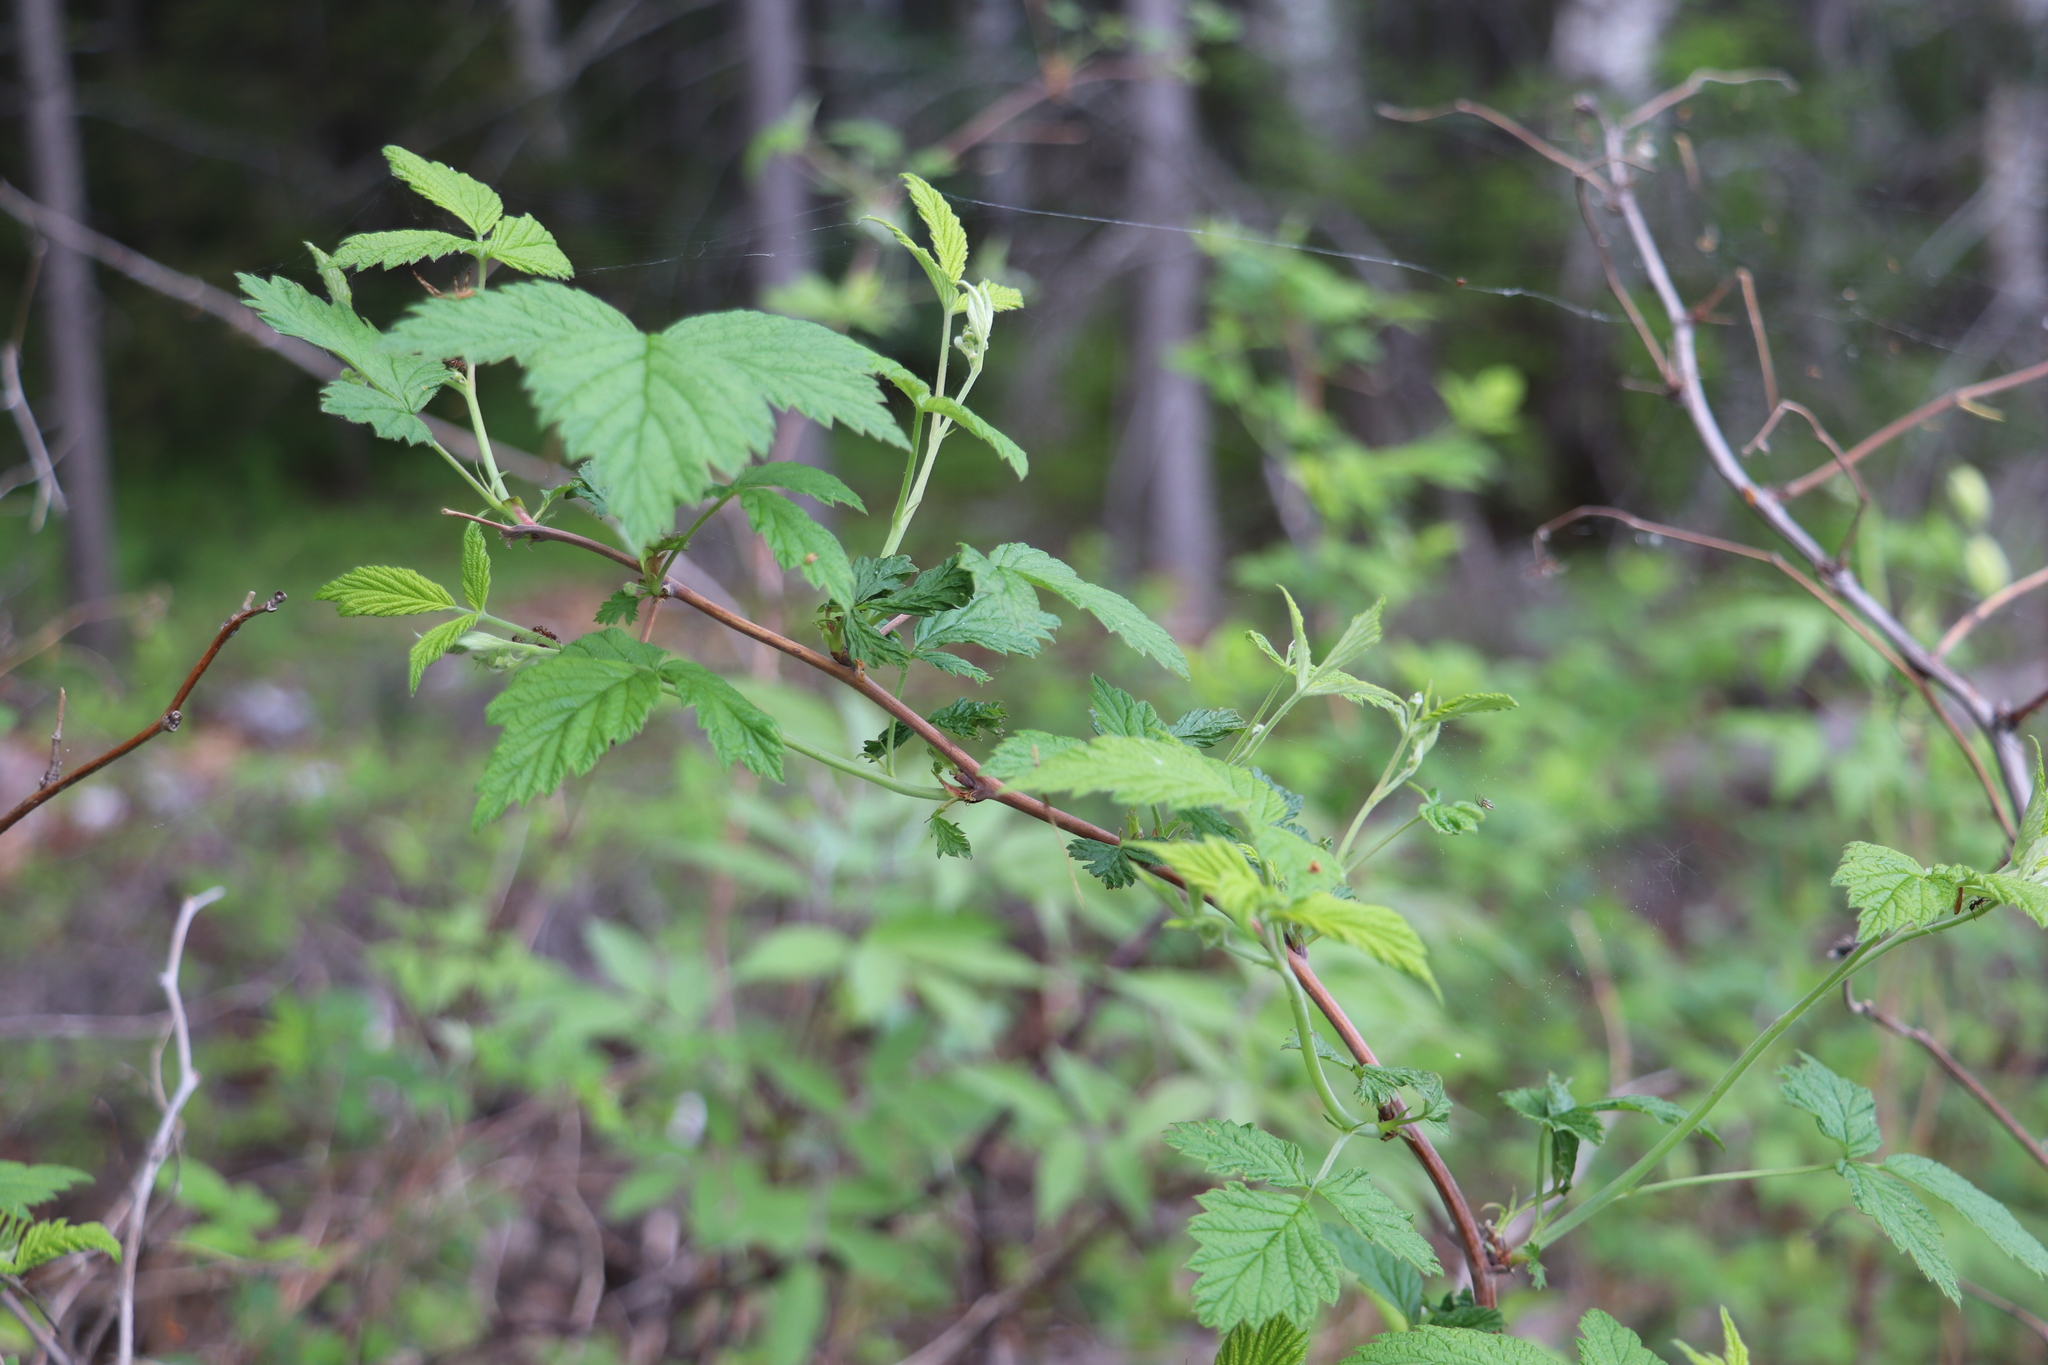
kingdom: Plantae
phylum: Tracheophyta
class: Magnoliopsida
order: Rosales
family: Rosaceae
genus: Rubus
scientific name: Rubus sachalinensis
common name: Red raspberry
